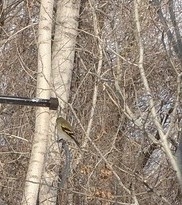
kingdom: Animalia
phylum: Chordata
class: Aves
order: Passeriformes
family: Fringillidae
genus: Spinus
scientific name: Spinus tristis
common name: American goldfinch
